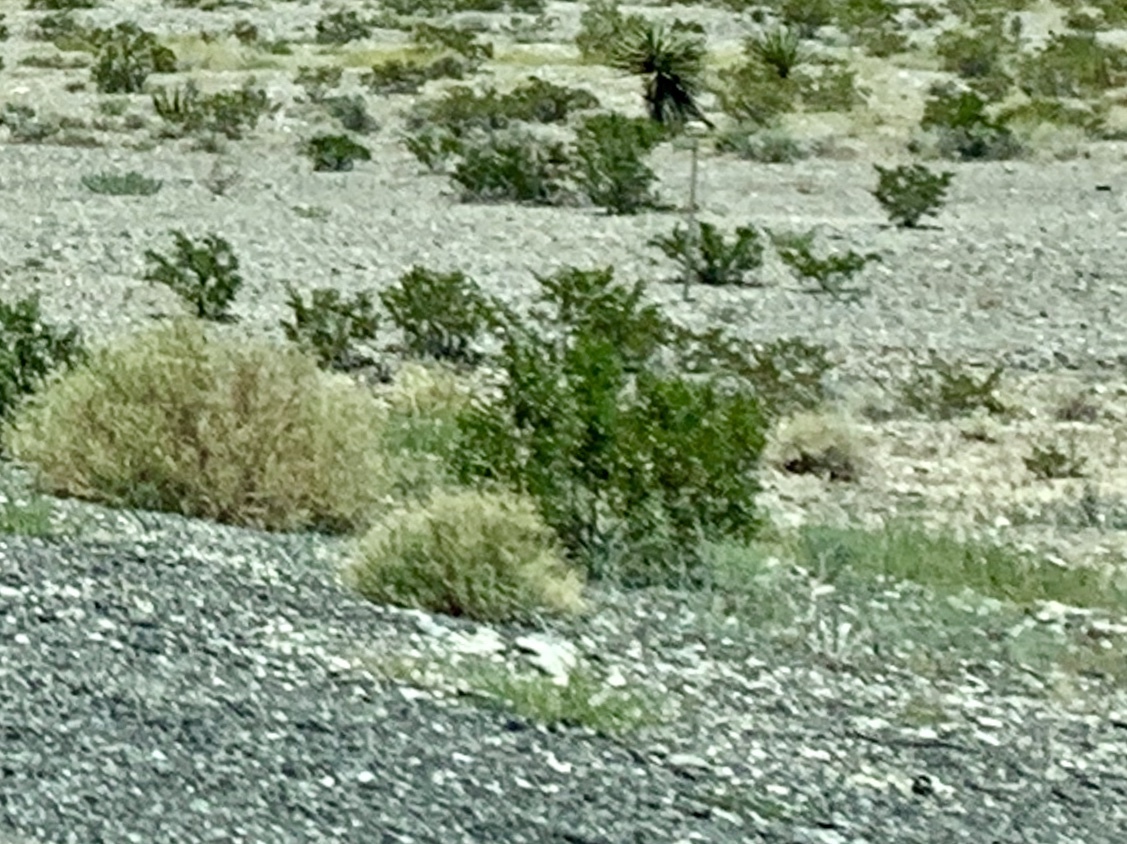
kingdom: Plantae
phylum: Tracheophyta
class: Magnoliopsida
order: Zygophyllales
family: Zygophyllaceae
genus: Larrea
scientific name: Larrea tridentata
